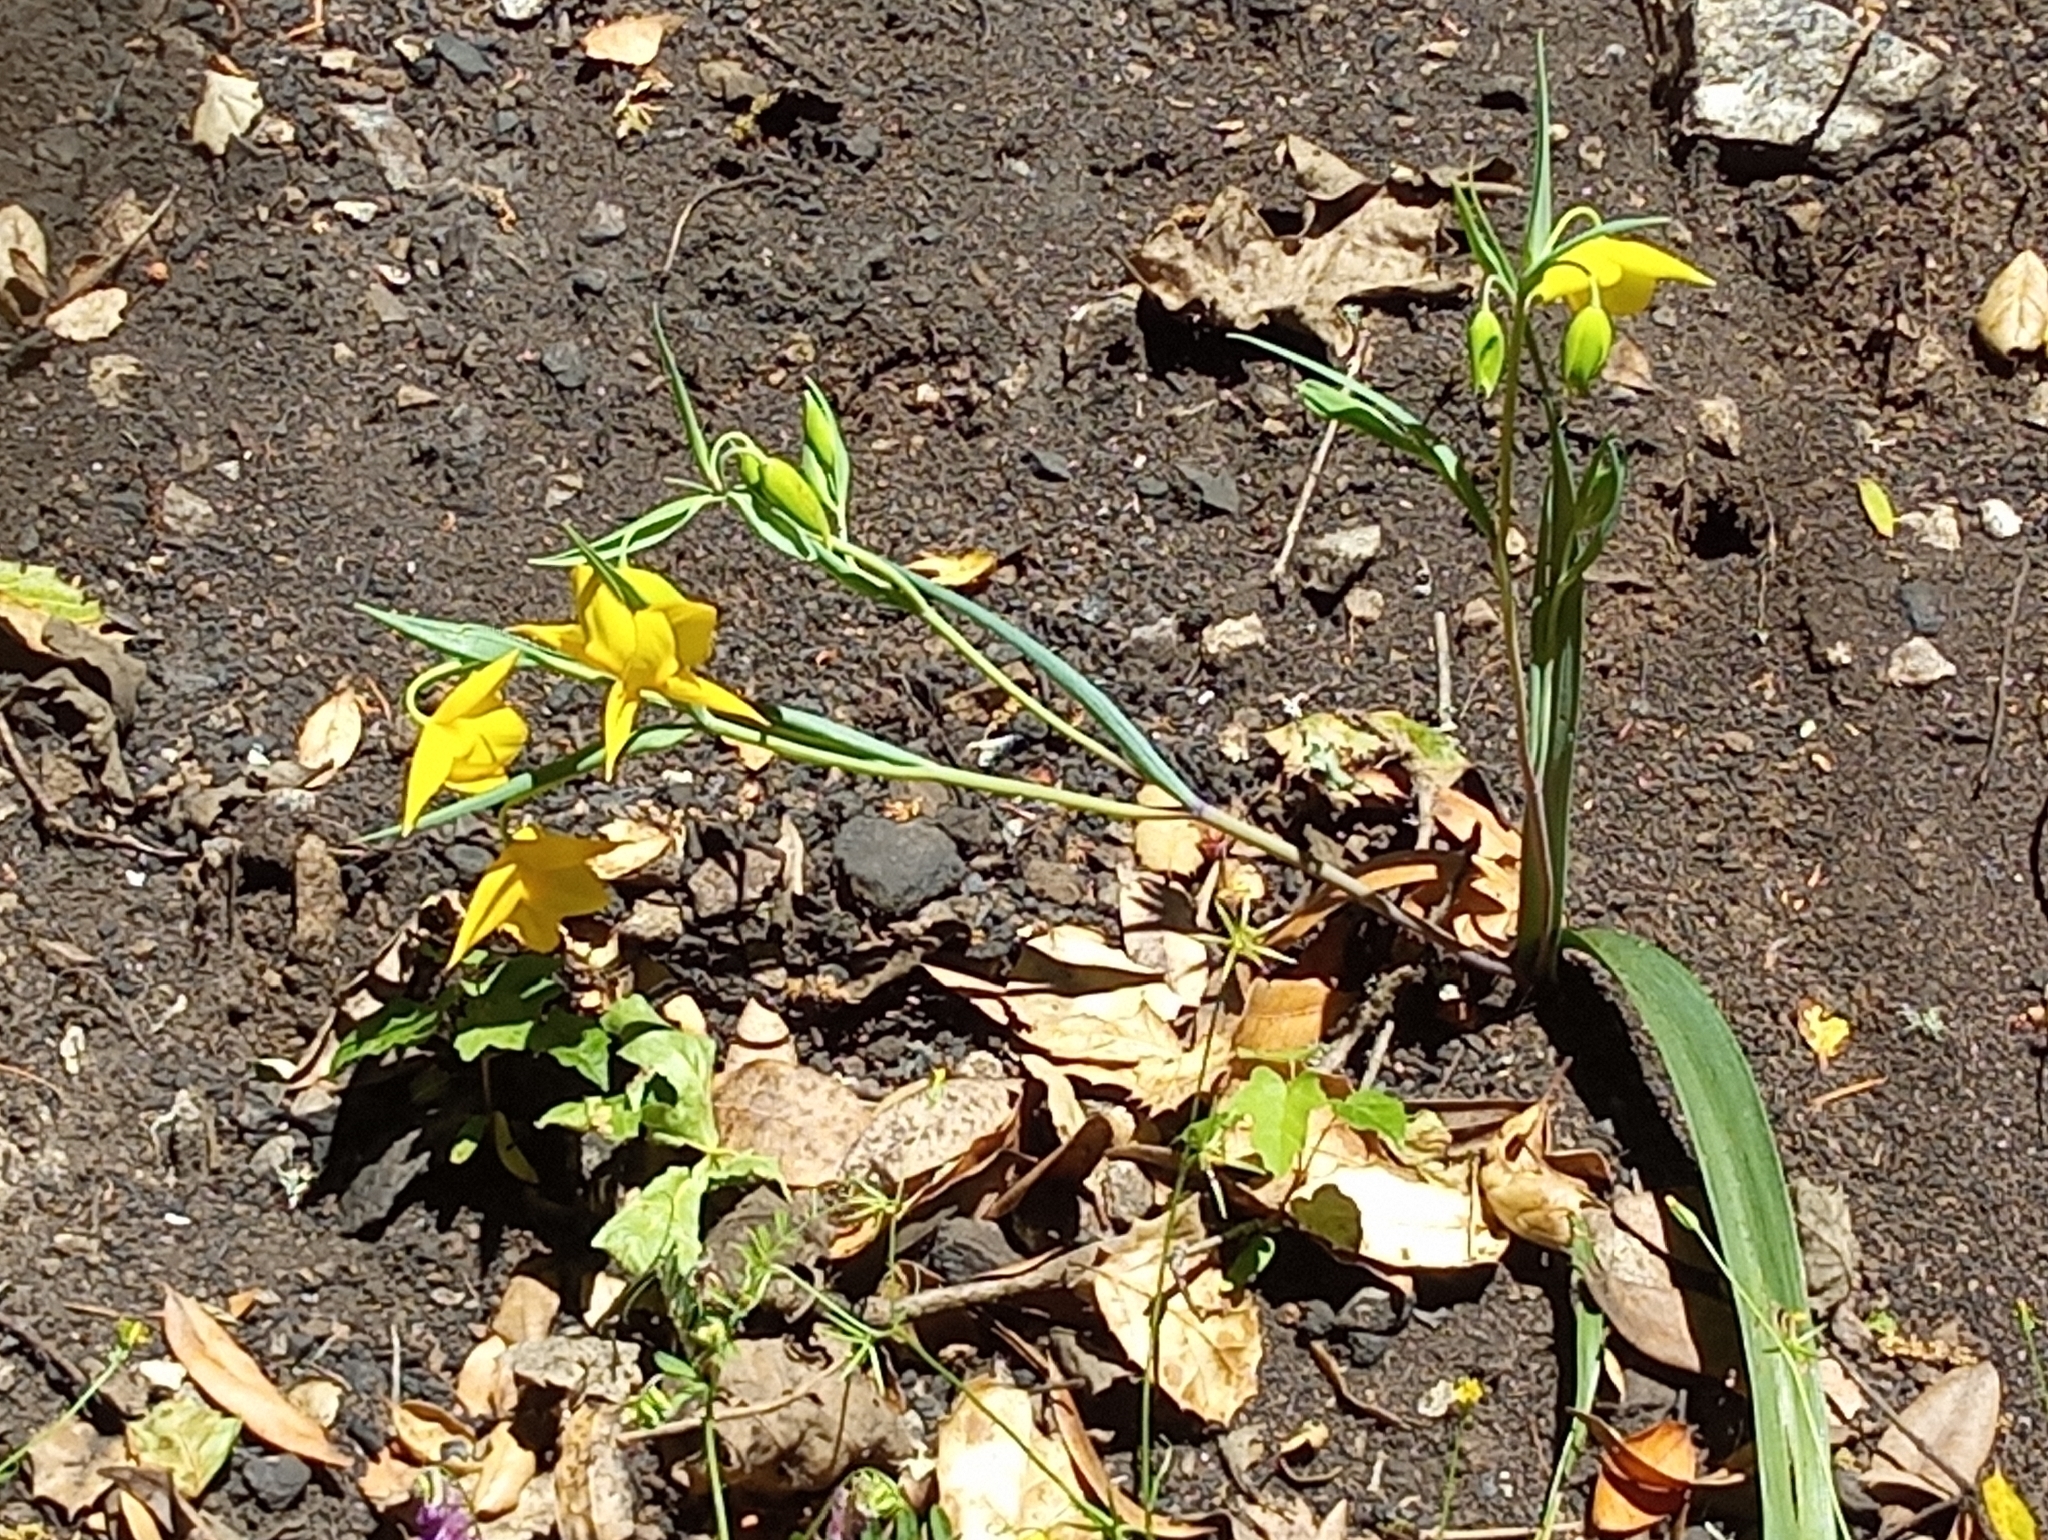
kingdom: Plantae
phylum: Tracheophyta
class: Liliopsida
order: Liliales
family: Liliaceae
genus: Calochortus
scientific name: Calochortus amabilis
